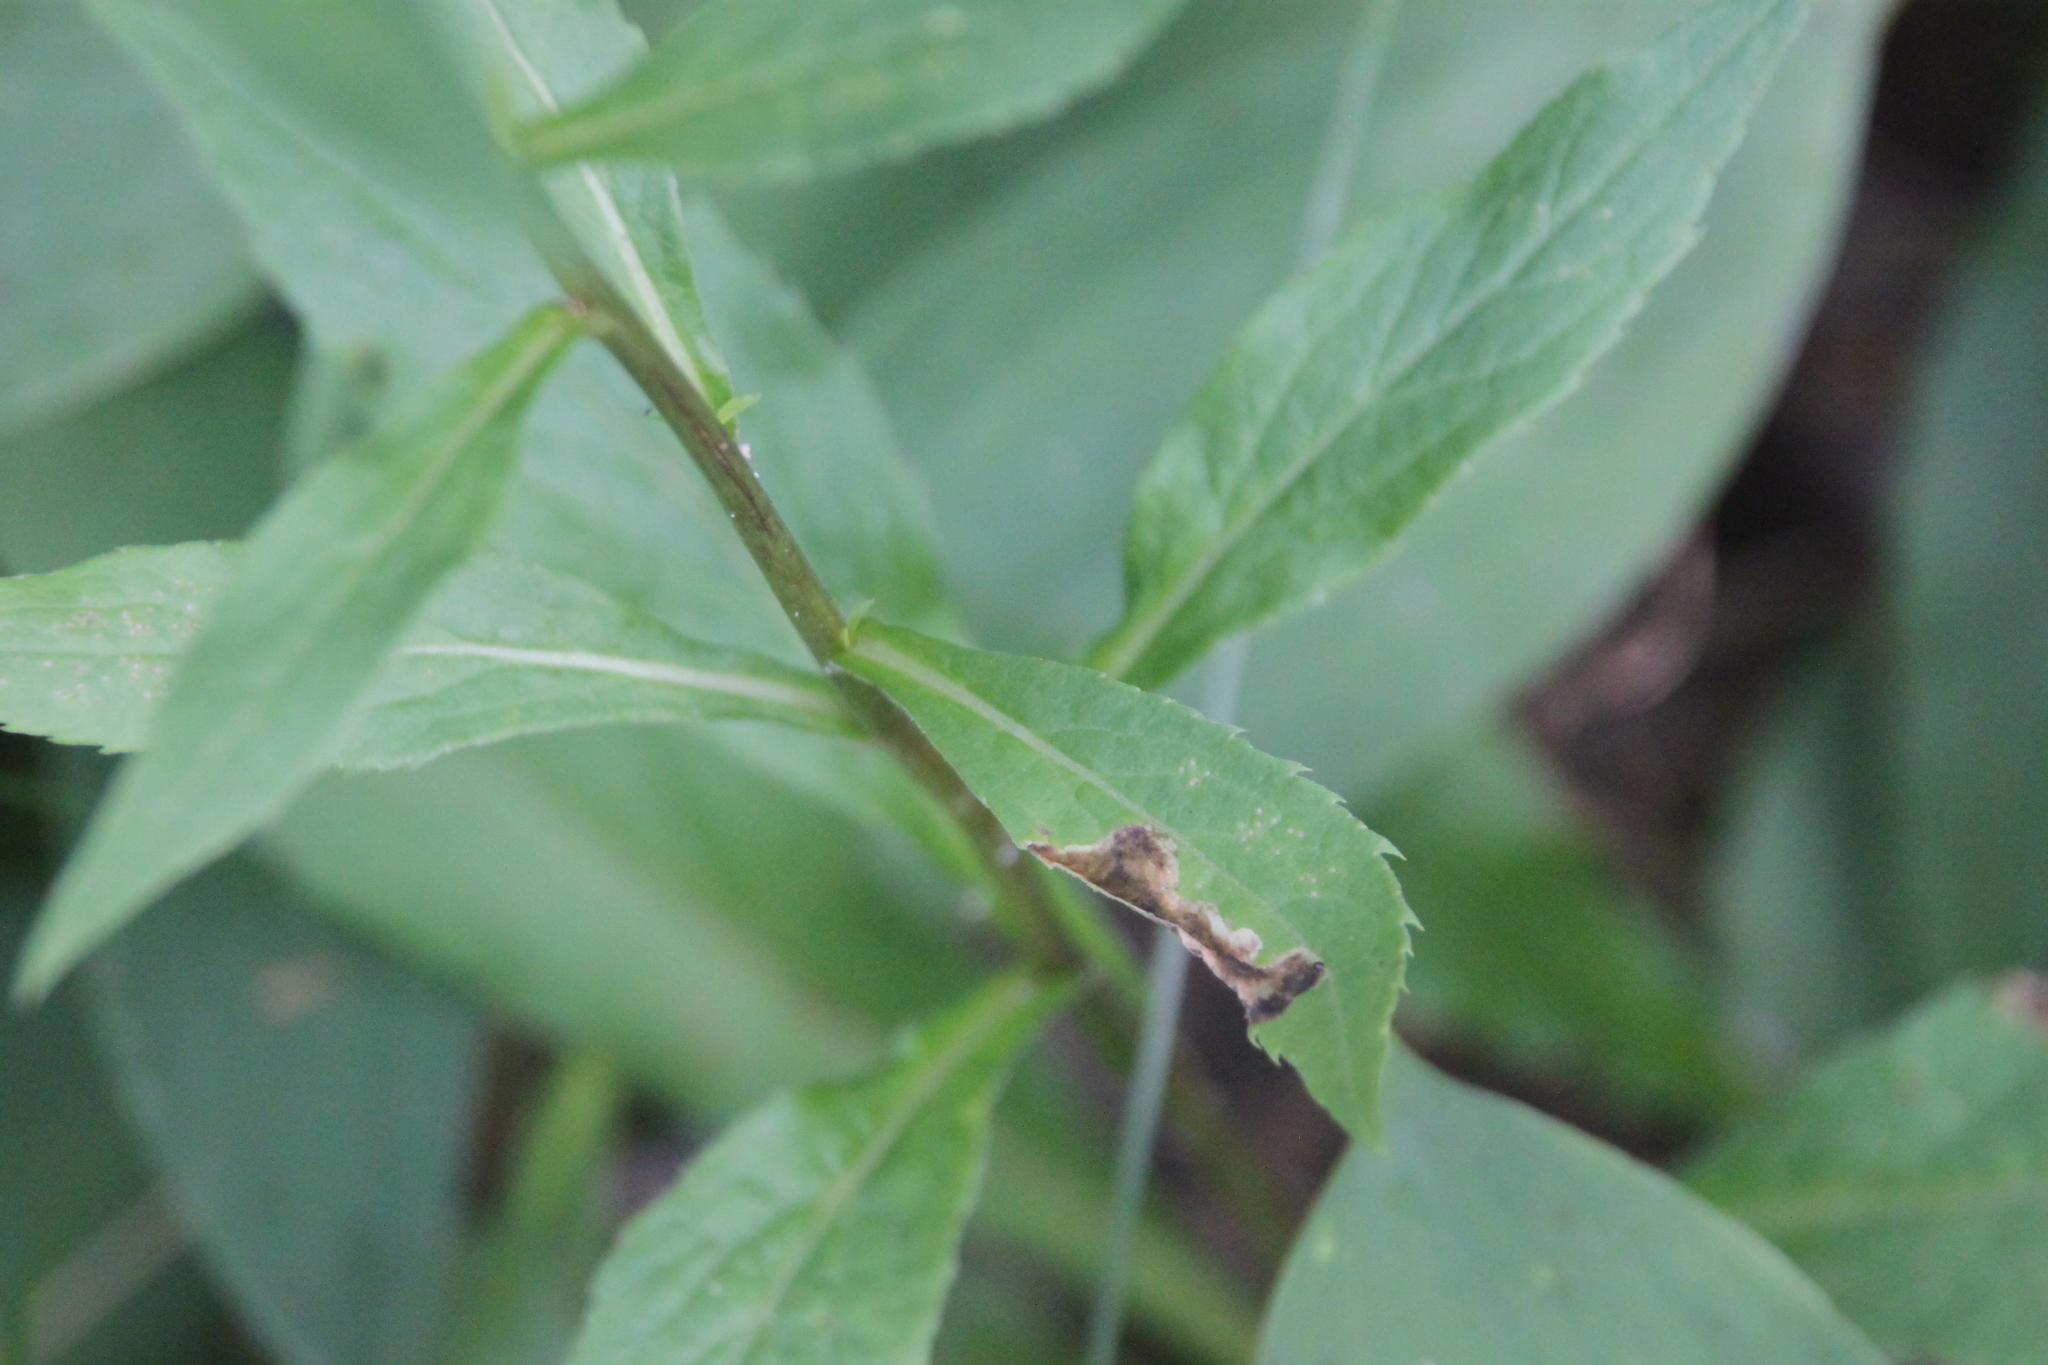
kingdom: Plantae
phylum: Tracheophyta
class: Magnoliopsida
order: Asterales
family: Asteraceae
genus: Solidago
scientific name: Solidago virgaurea
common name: Goldenrod
